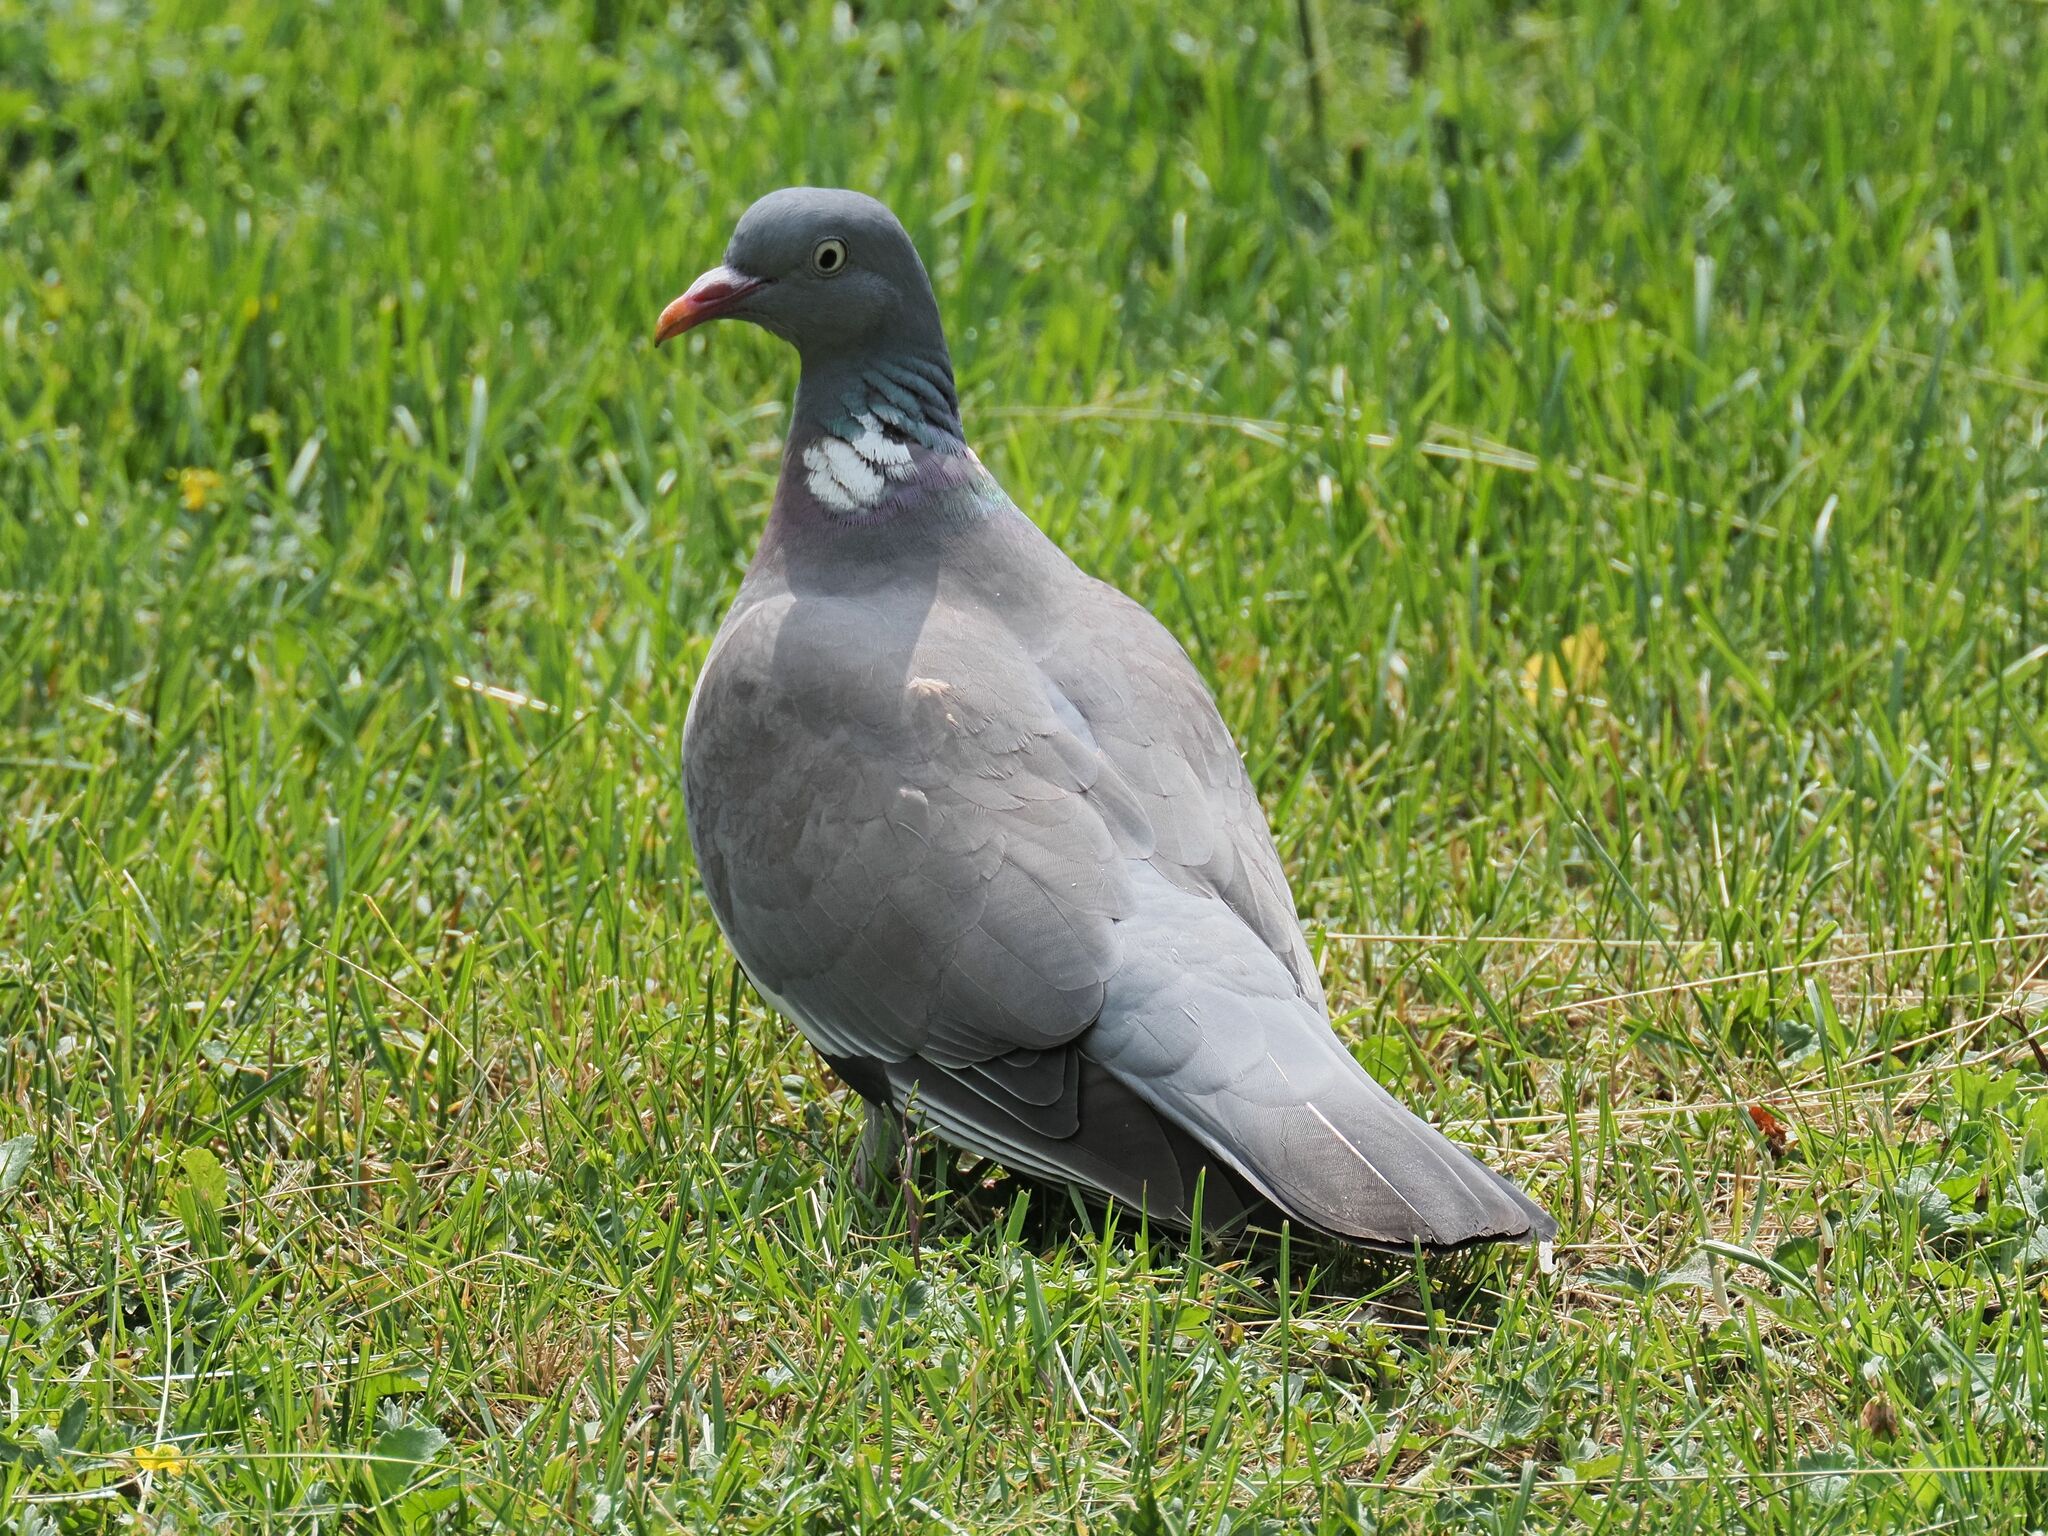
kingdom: Animalia
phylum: Chordata
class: Aves
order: Columbiformes
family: Columbidae
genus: Columba
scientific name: Columba palumbus
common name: Common wood pigeon
